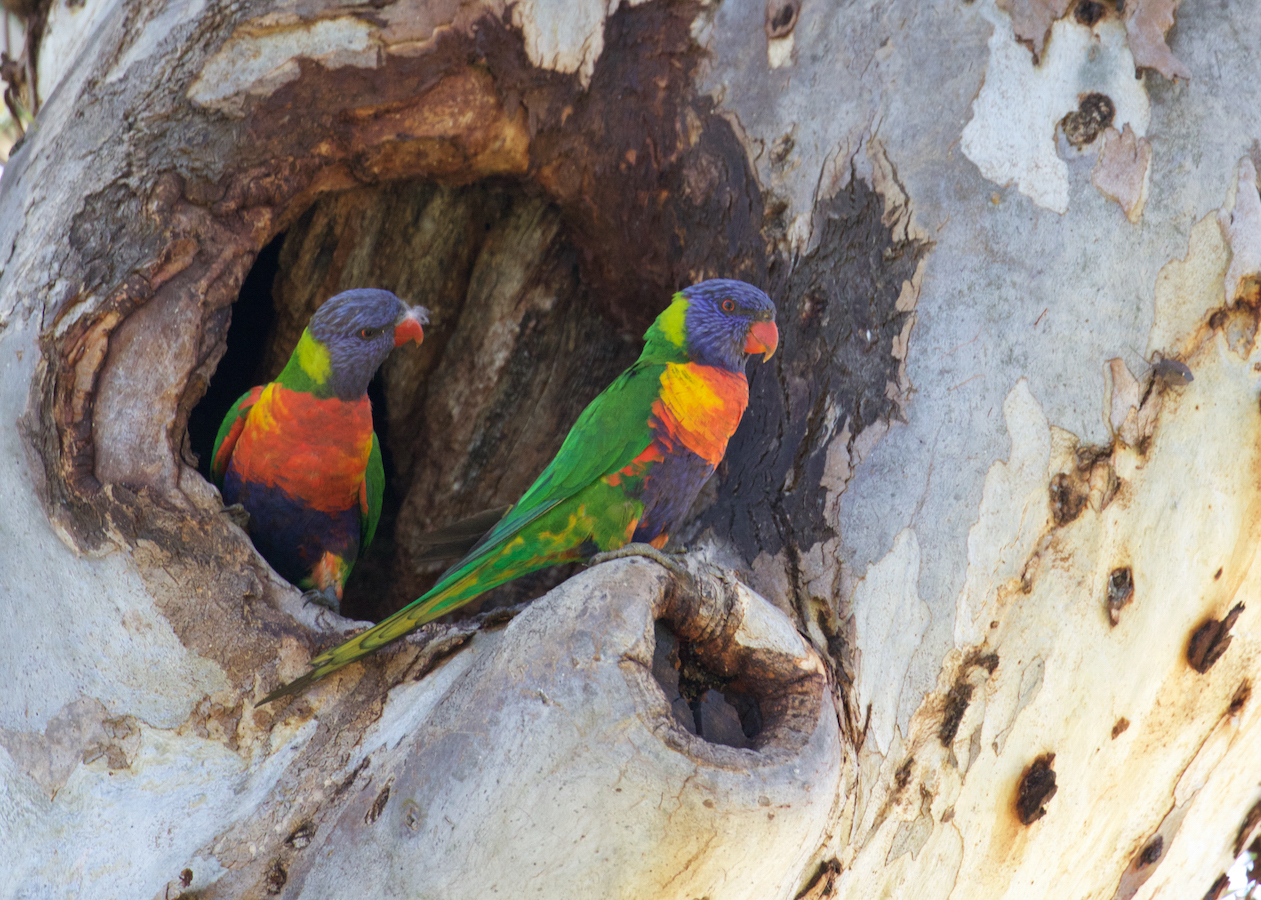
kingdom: Animalia
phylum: Chordata
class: Aves
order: Psittaciformes
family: Psittacidae
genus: Trichoglossus
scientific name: Trichoglossus haematodus
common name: Coconut lorikeet
